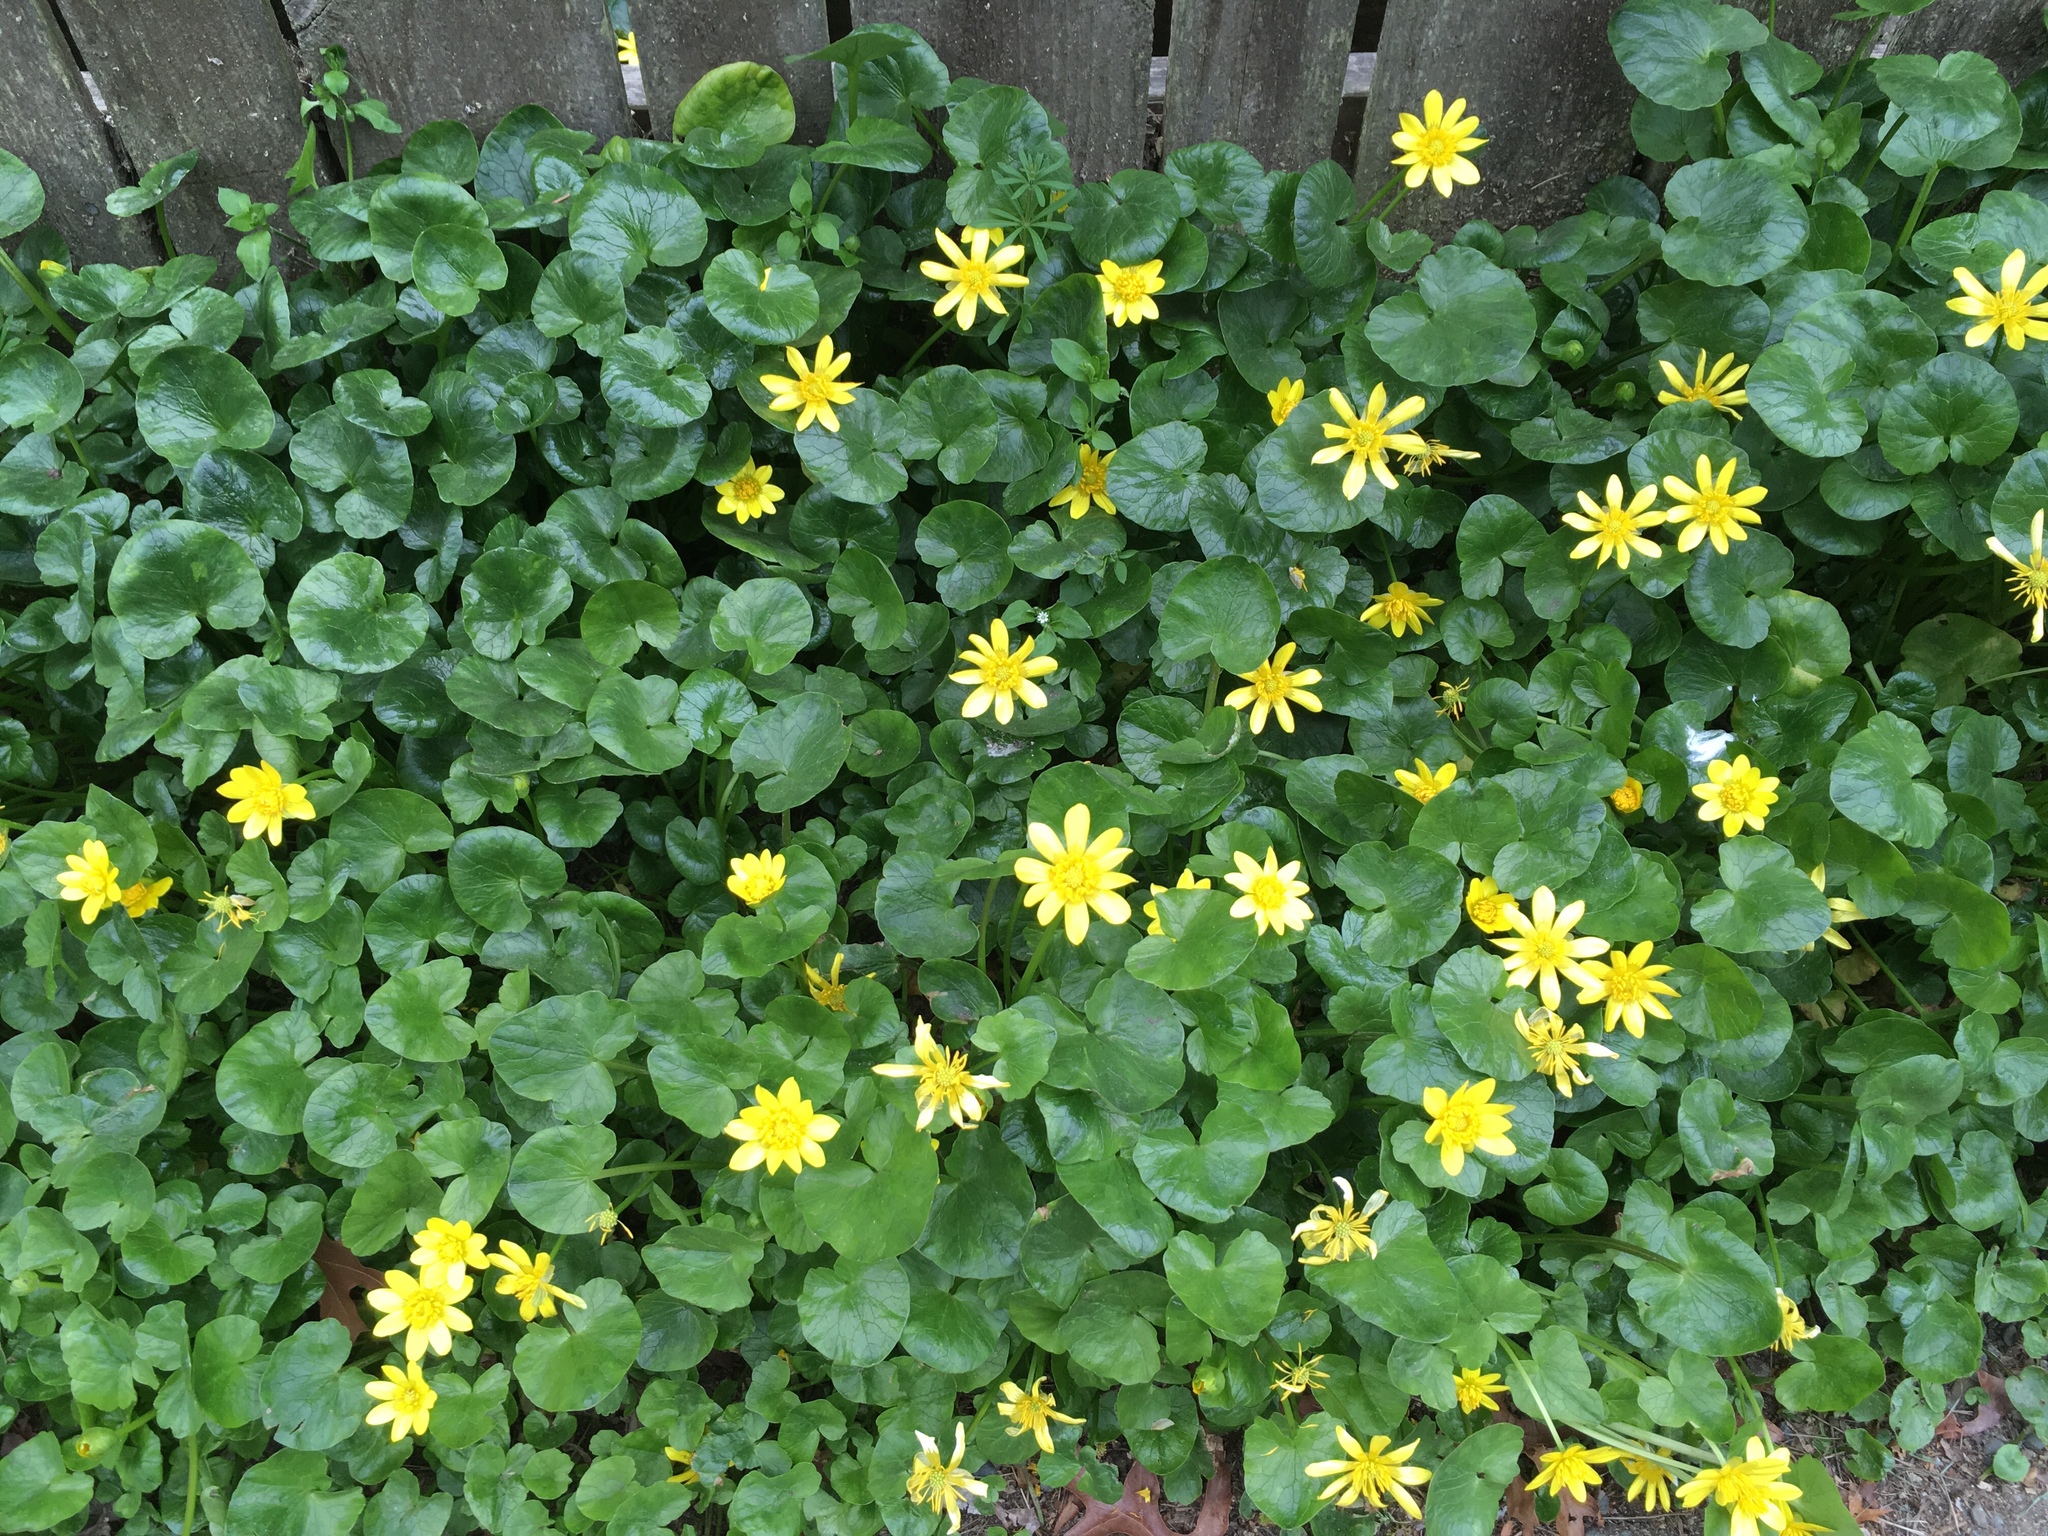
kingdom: Plantae
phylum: Tracheophyta
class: Magnoliopsida
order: Ranunculales
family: Ranunculaceae
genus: Ficaria
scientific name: Ficaria verna
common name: Lesser celandine
